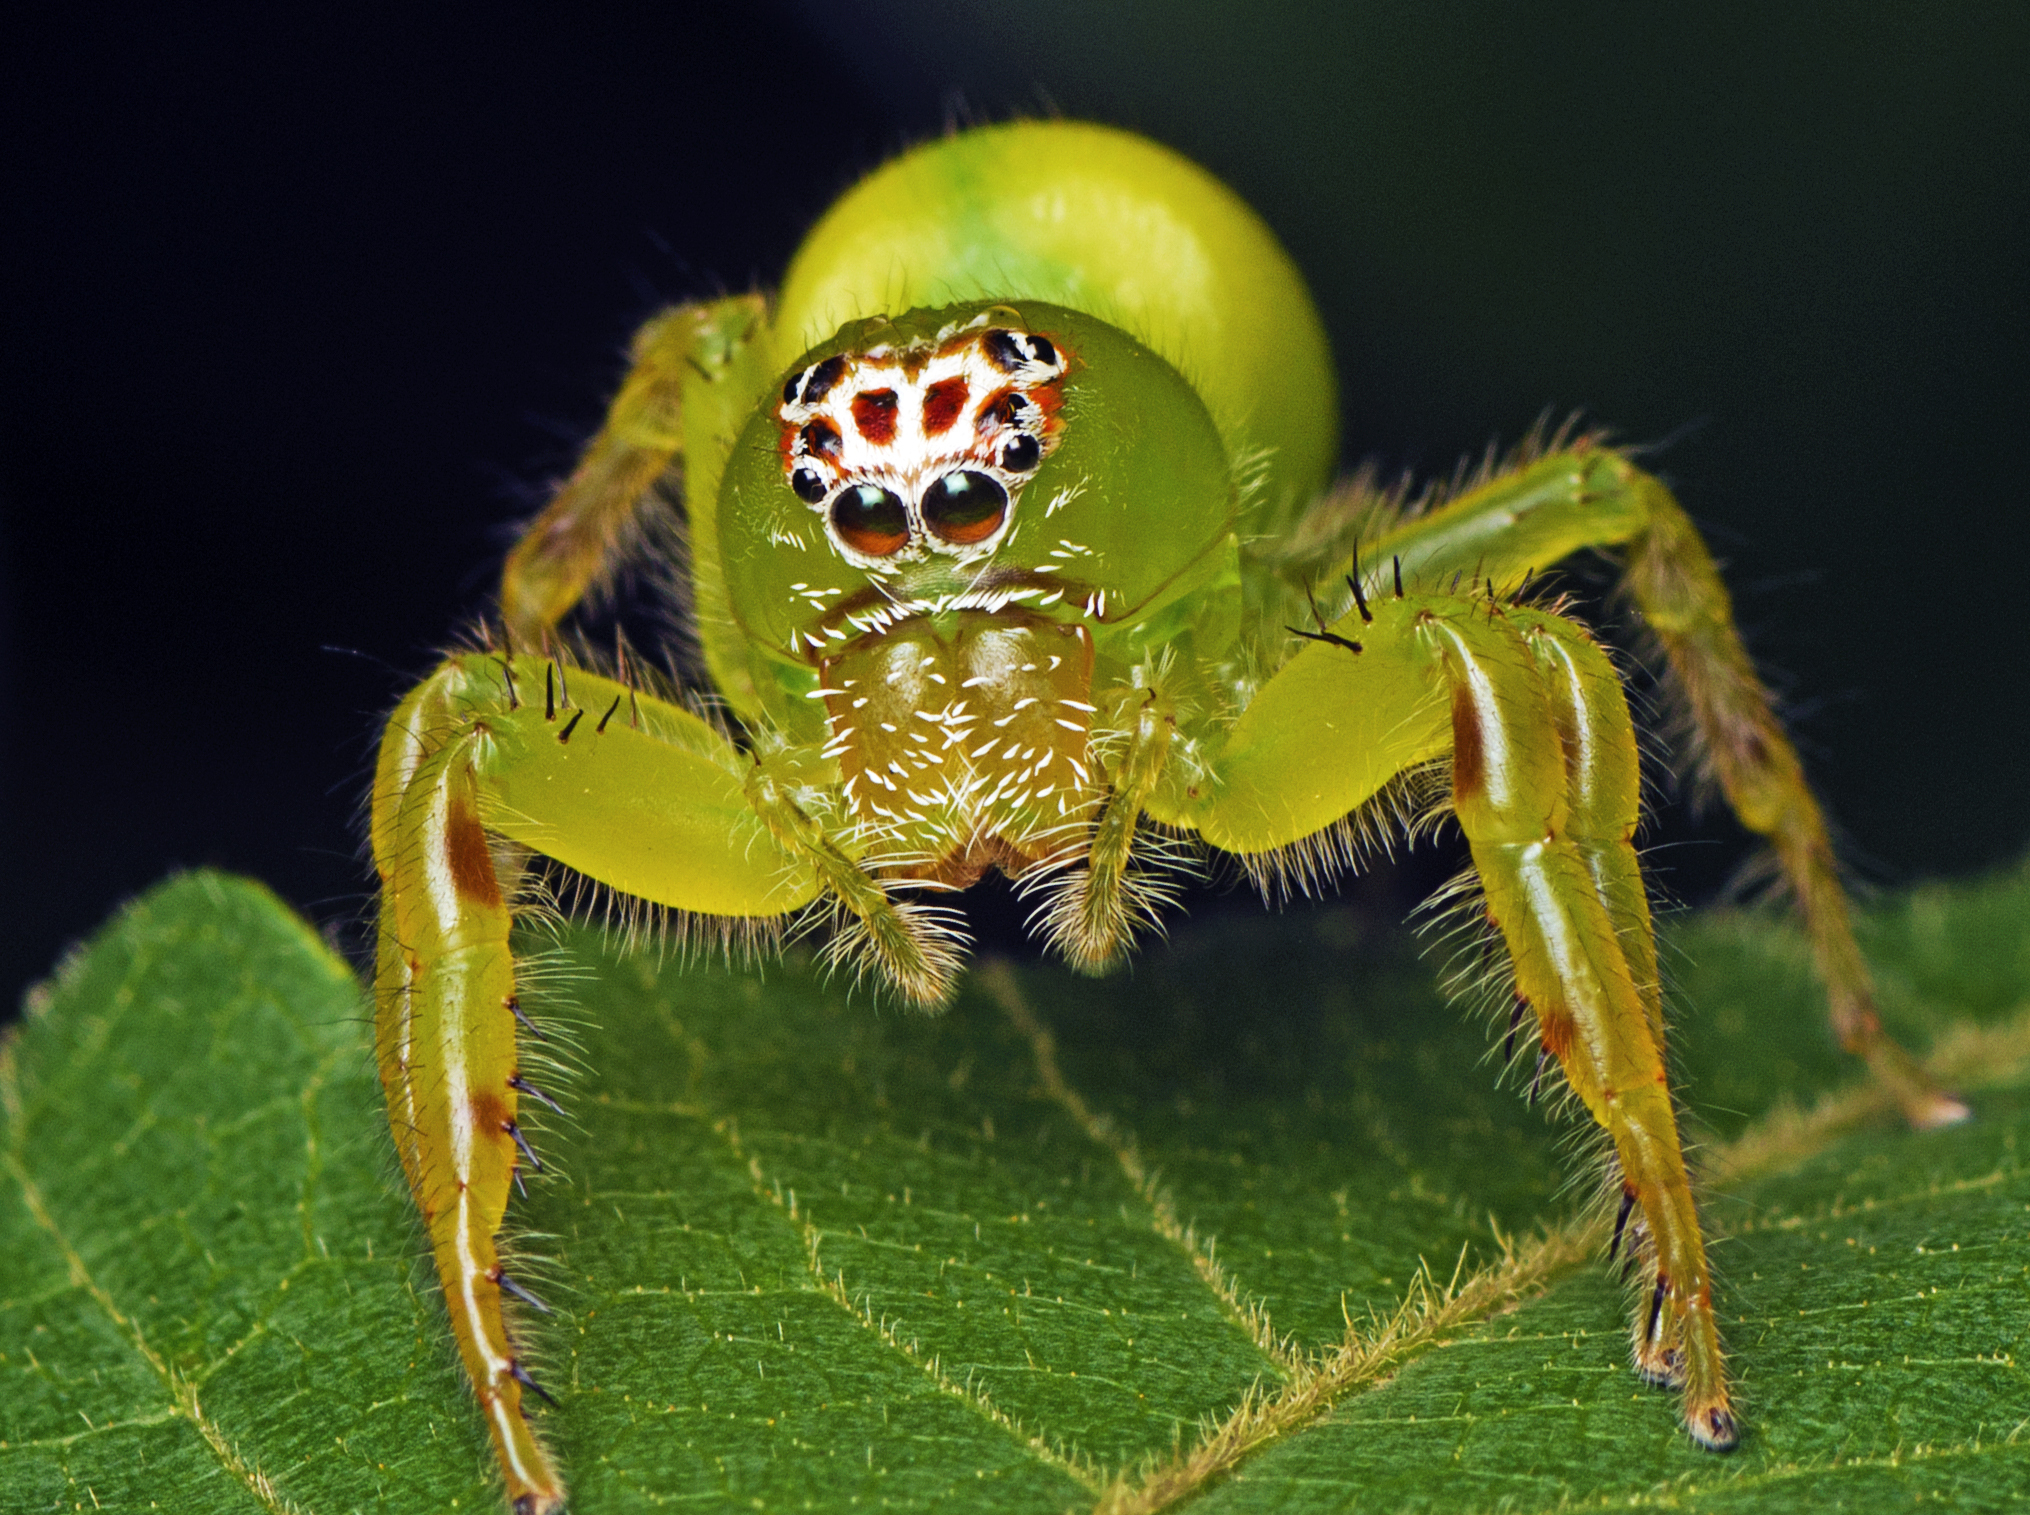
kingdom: Animalia
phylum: Arthropoda
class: Arachnida
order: Araneae
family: Salticidae
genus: Mopsus
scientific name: Mopsus mormon
